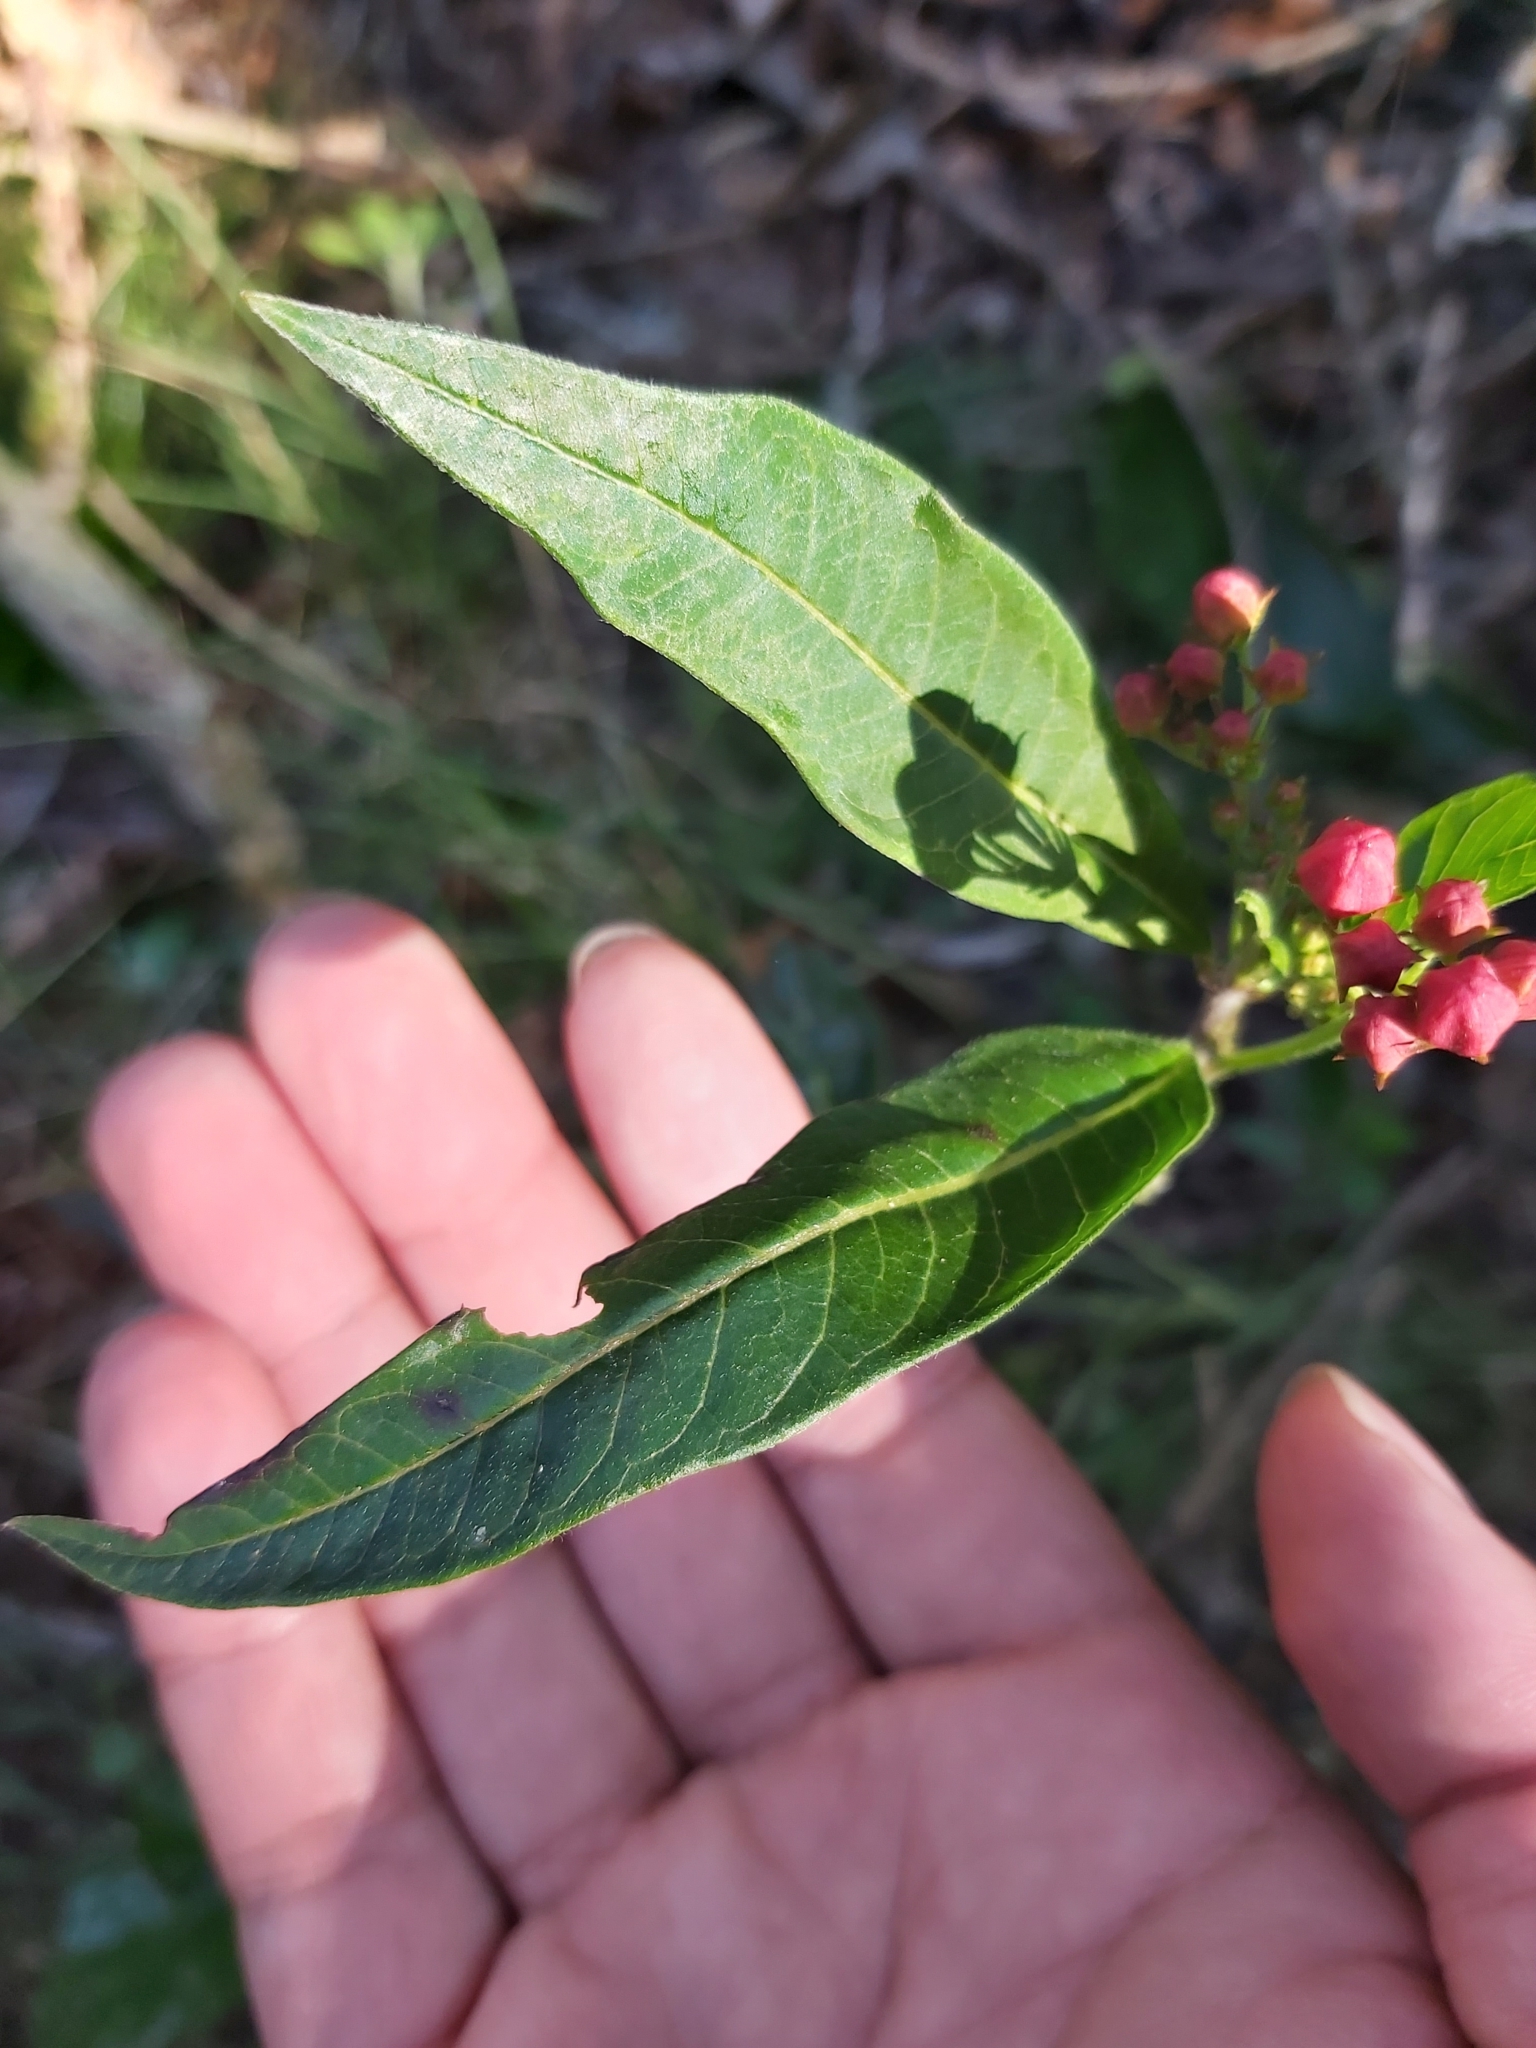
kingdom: Plantae
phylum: Tracheophyta
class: Magnoliopsida
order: Gentianales
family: Apocynaceae
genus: Asclepias
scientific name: Asclepias curassavica
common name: Bloodflower
